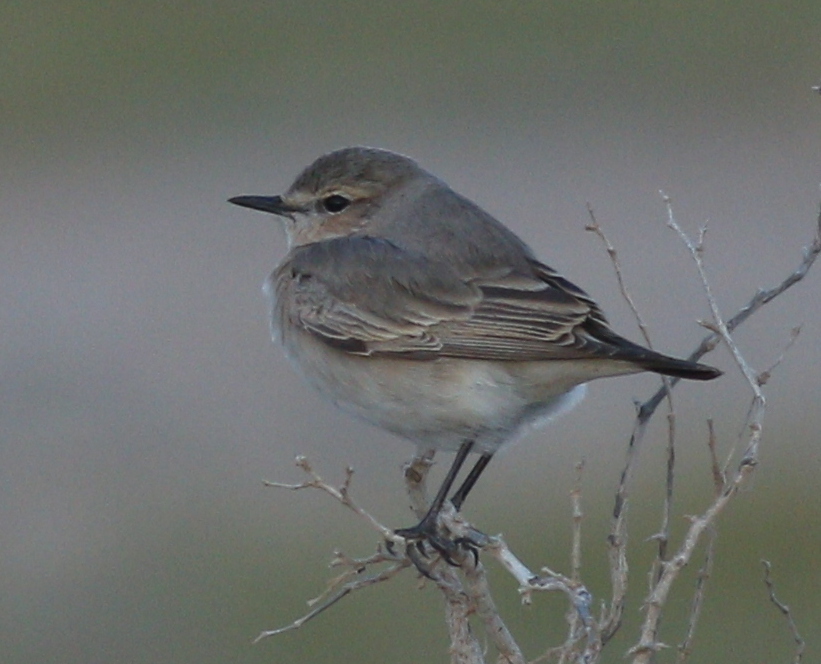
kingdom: Animalia
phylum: Chordata
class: Aves
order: Passeriformes
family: Muscicapidae
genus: Oenanthe
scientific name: Oenanthe isabellina
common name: Isabelline wheatear
